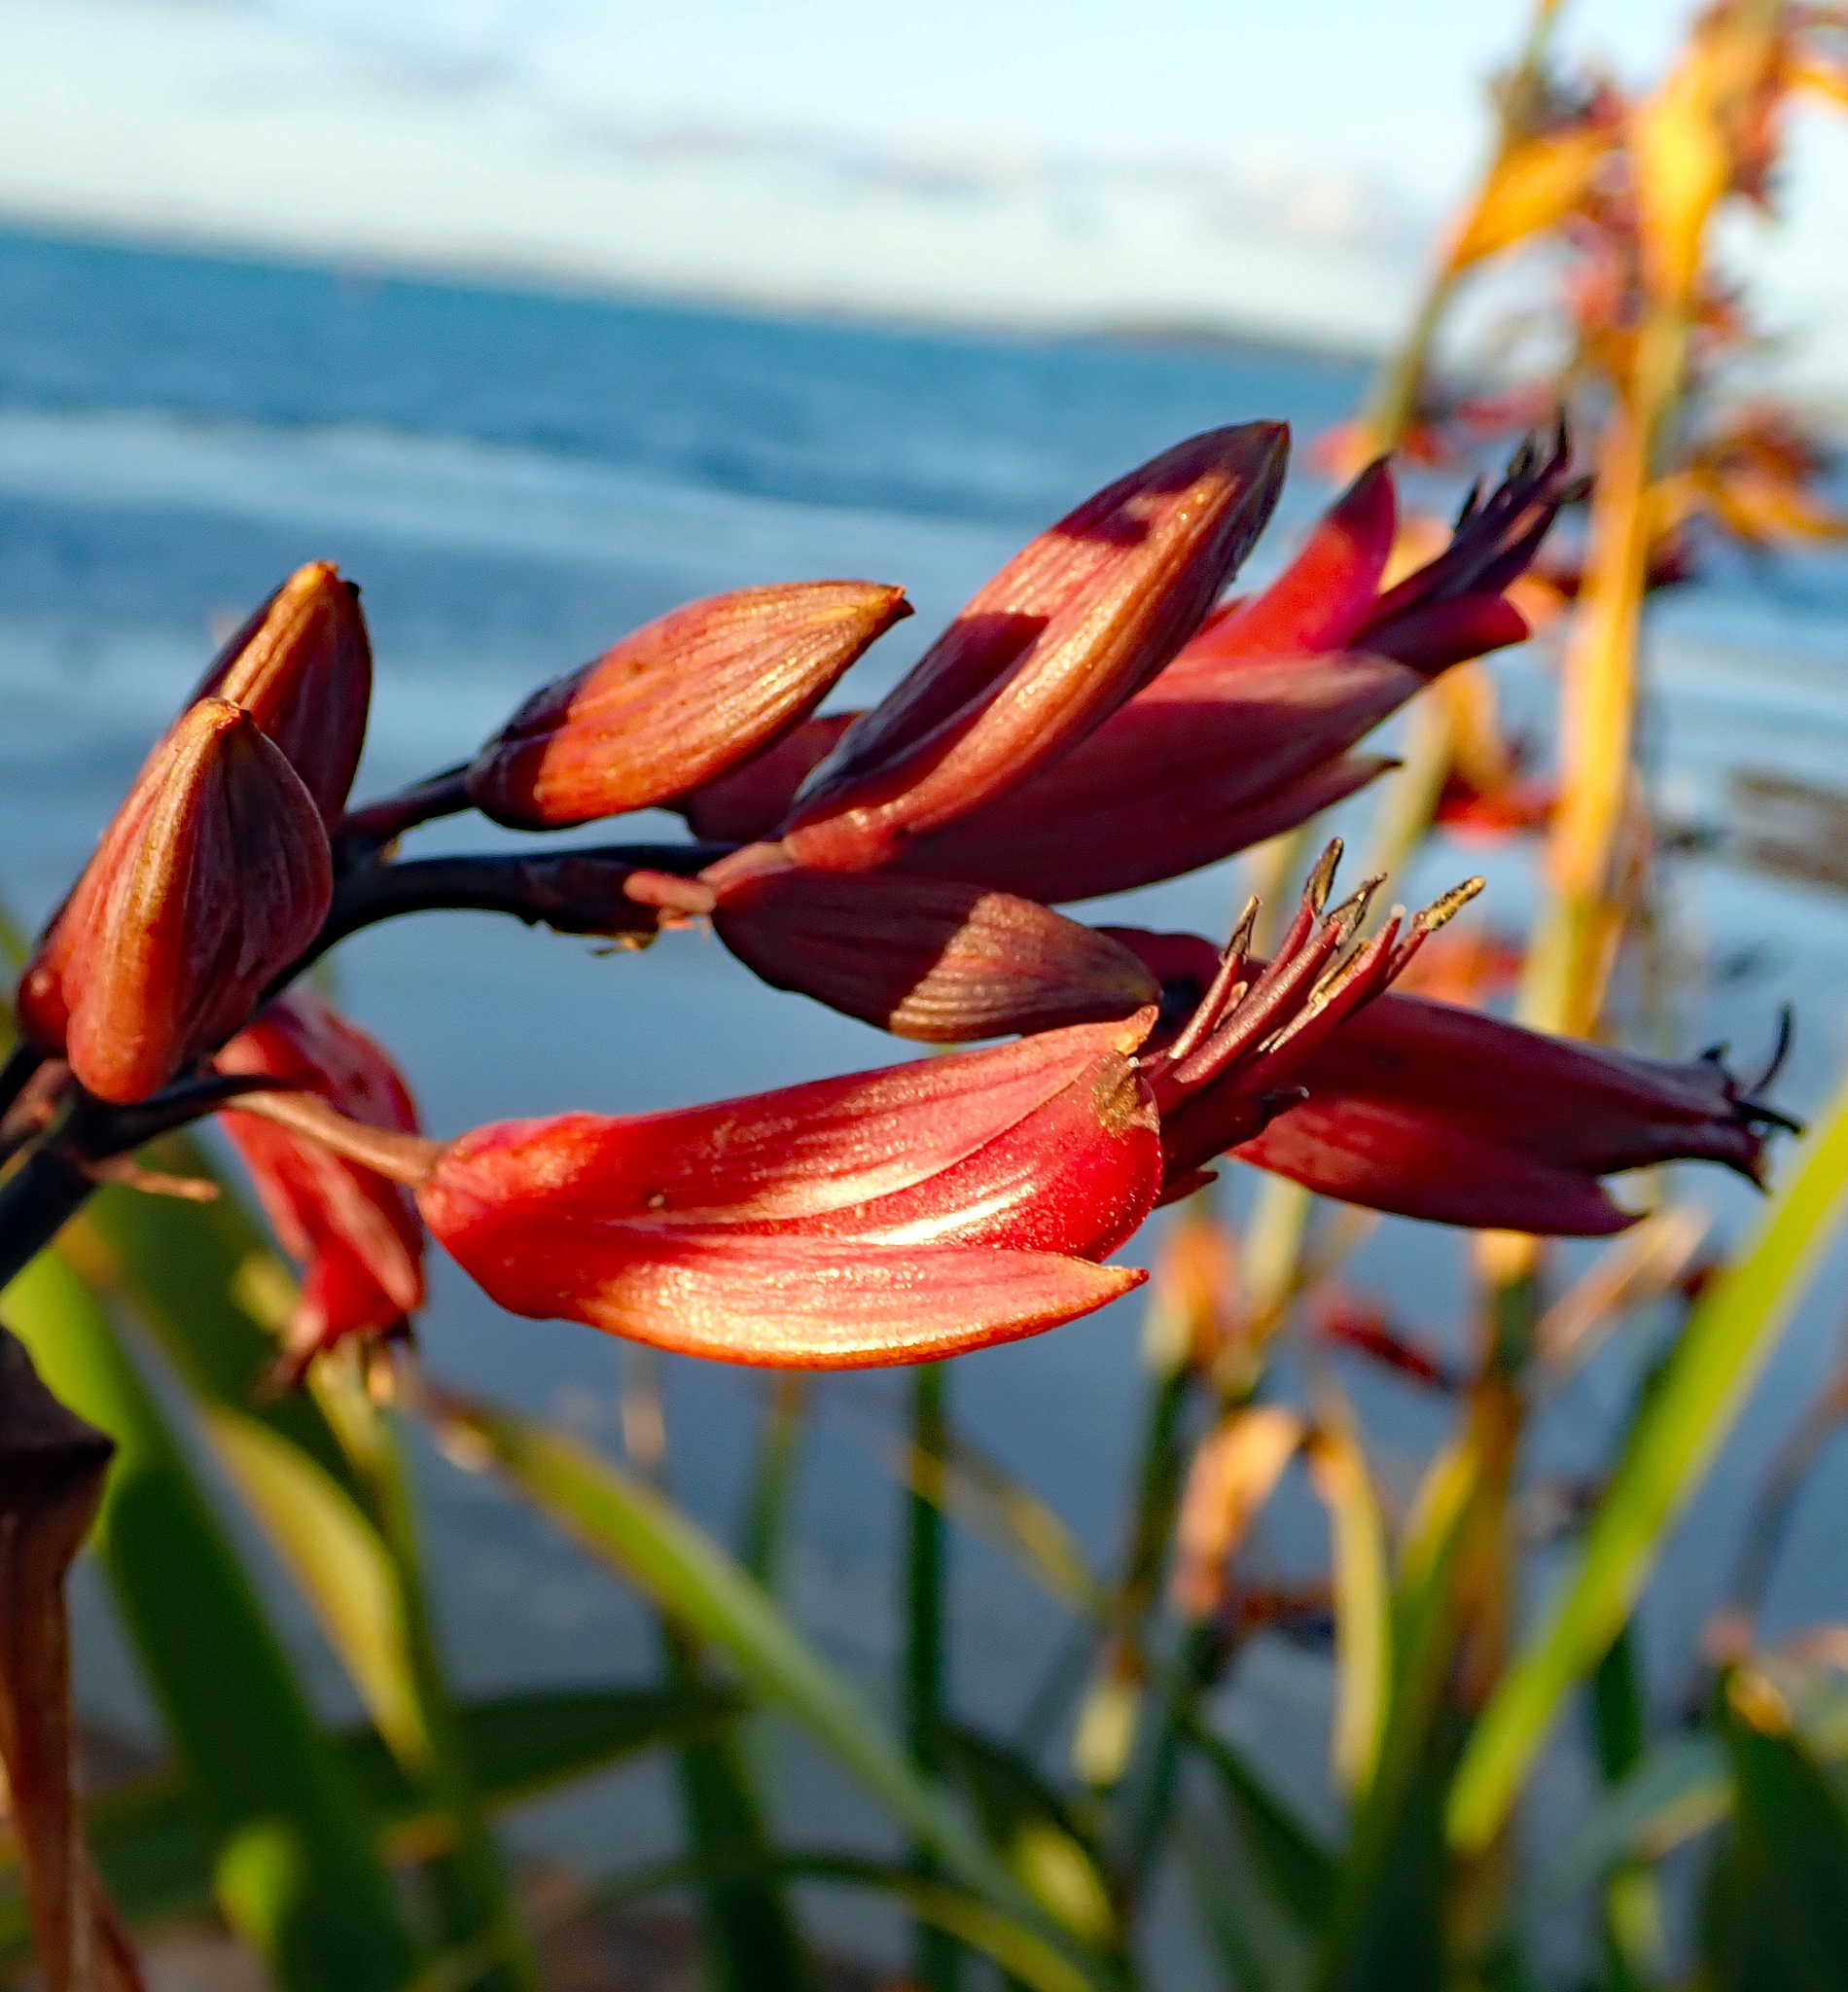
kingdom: Plantae
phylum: Tracheophyta
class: Liliopsida
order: Asparagales
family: Asphodelaceae
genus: Phormium
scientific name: Phormium tenax
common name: New zealand flax
